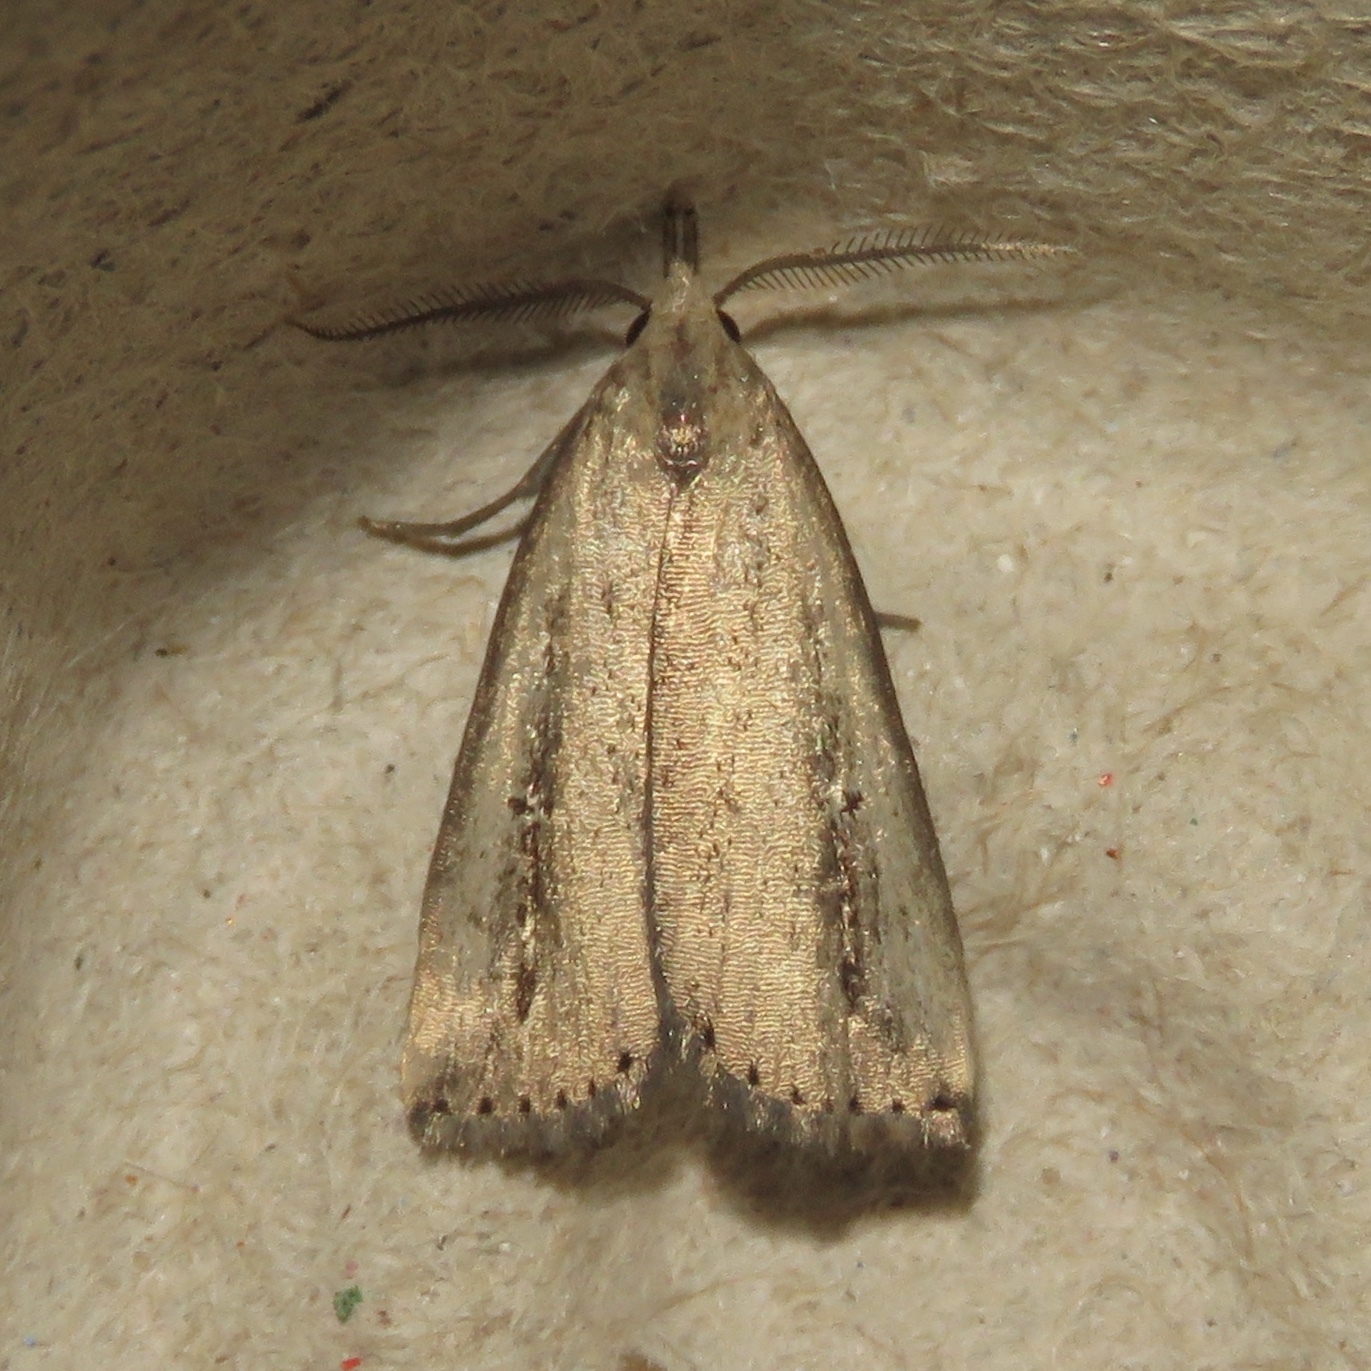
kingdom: Animalia
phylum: Arthropoda
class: Insecta
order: Lepidoptera
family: Erebidae
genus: Macrochilo
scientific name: Macrochilo orciferalis
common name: Bronzy owlet
